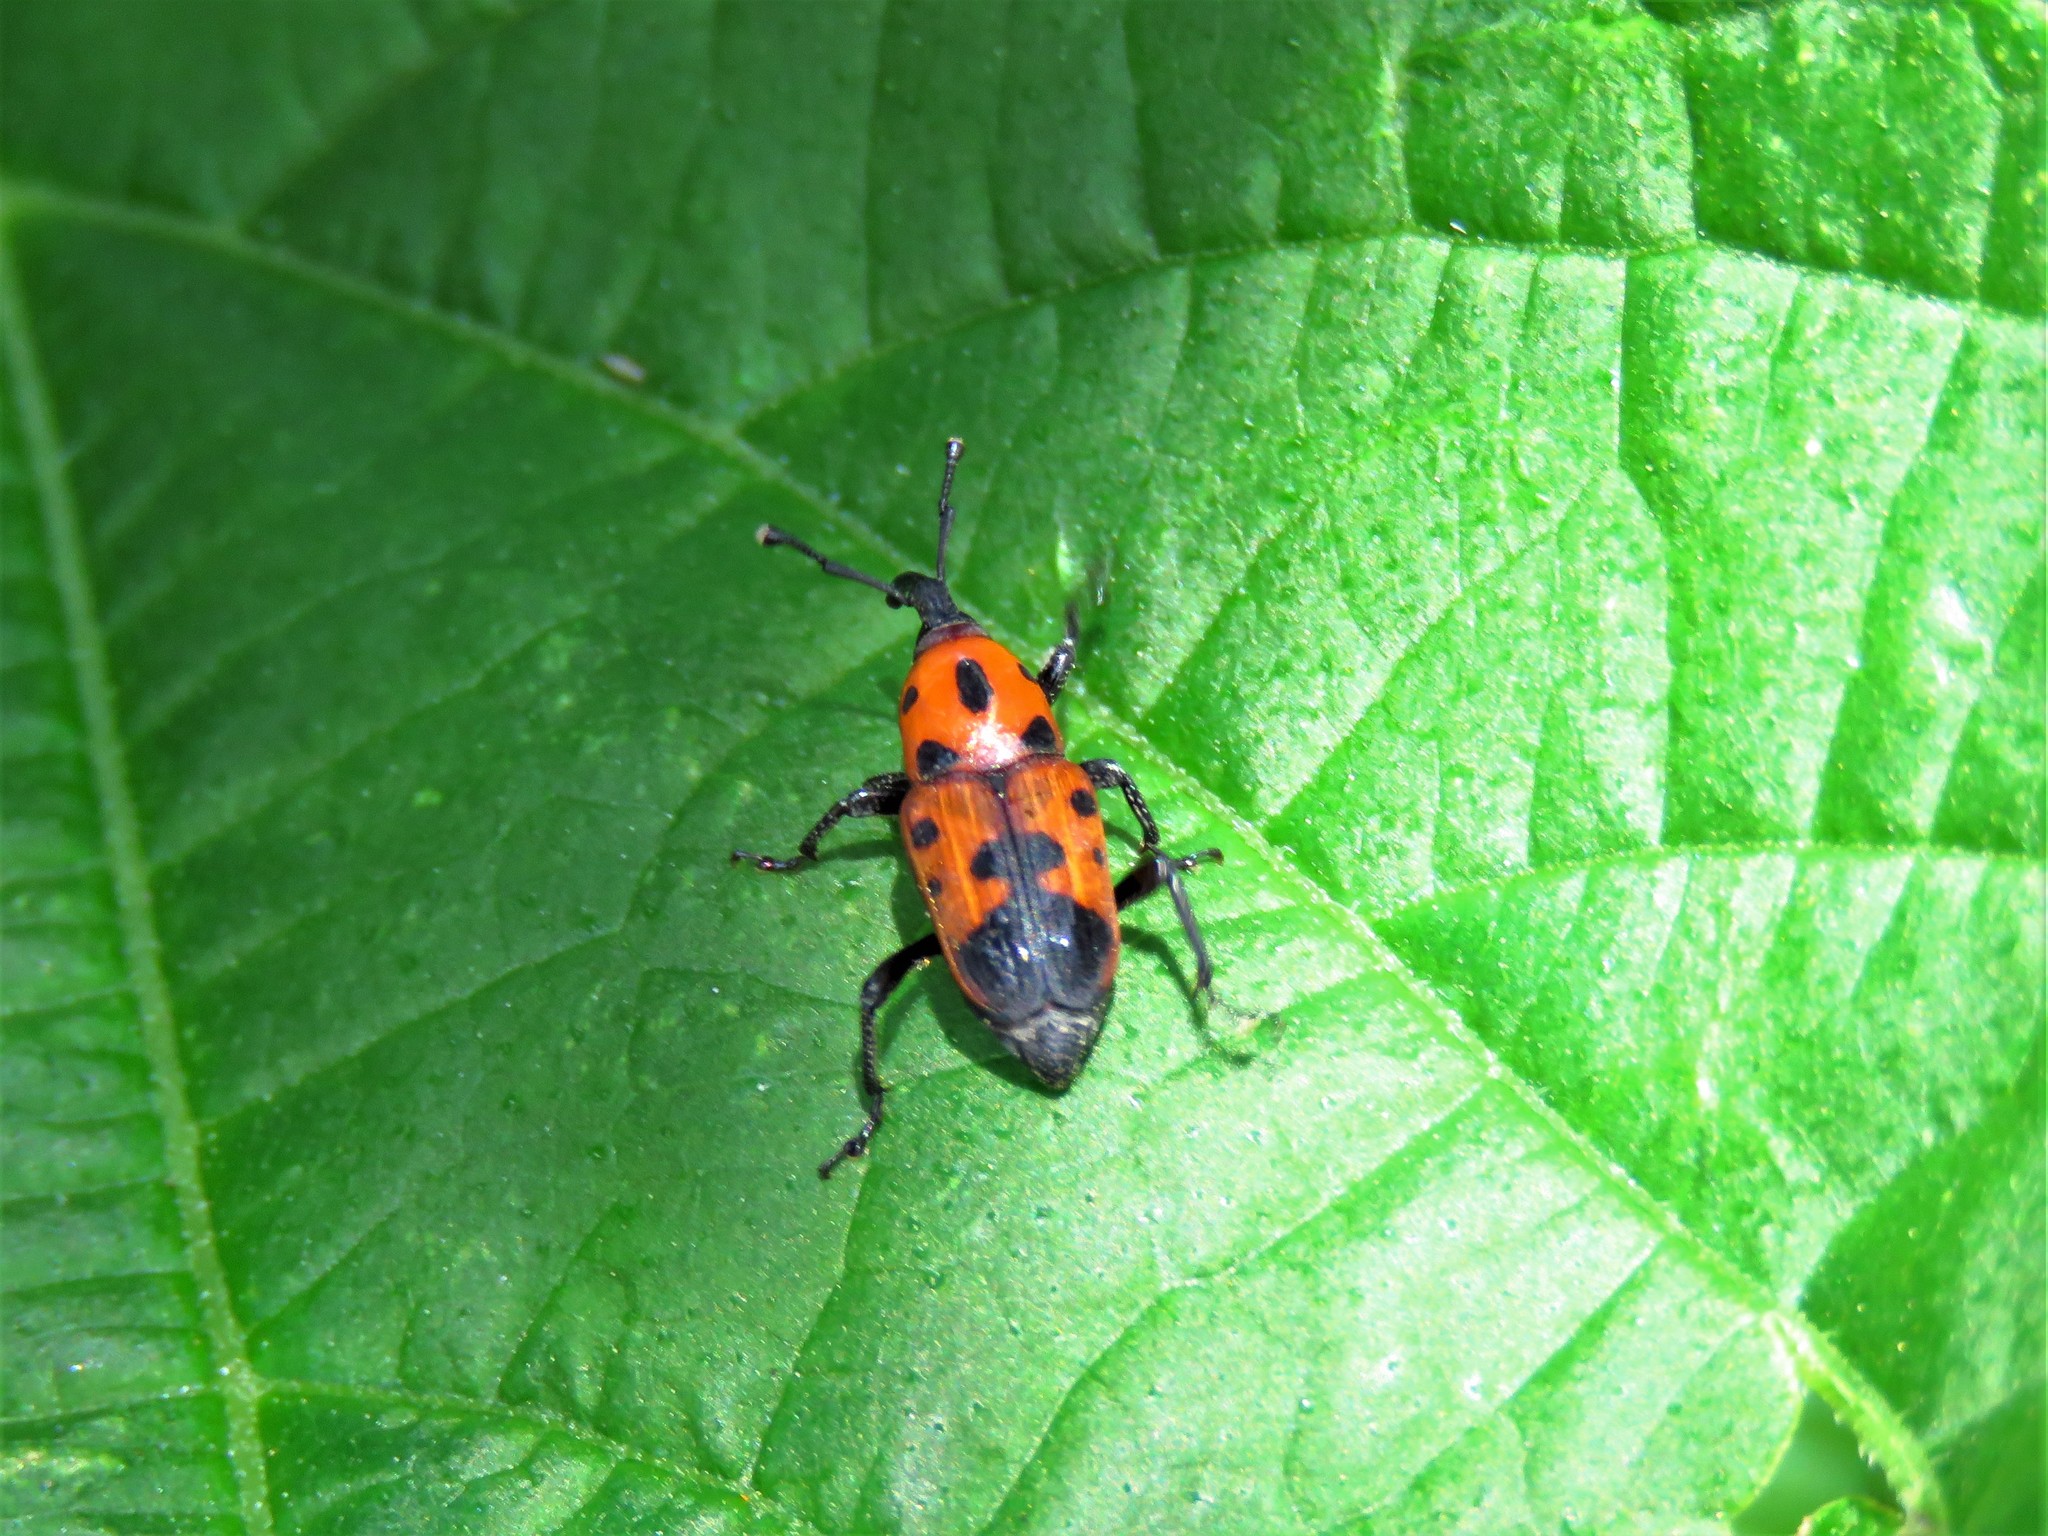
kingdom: Animalia
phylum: Arthropoda
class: Insecta
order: Coleoptera
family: Dryophthoridae
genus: Rhodobaenus
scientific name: Rhodobaenus quinquepunctatus
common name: Cocklebur weevil
